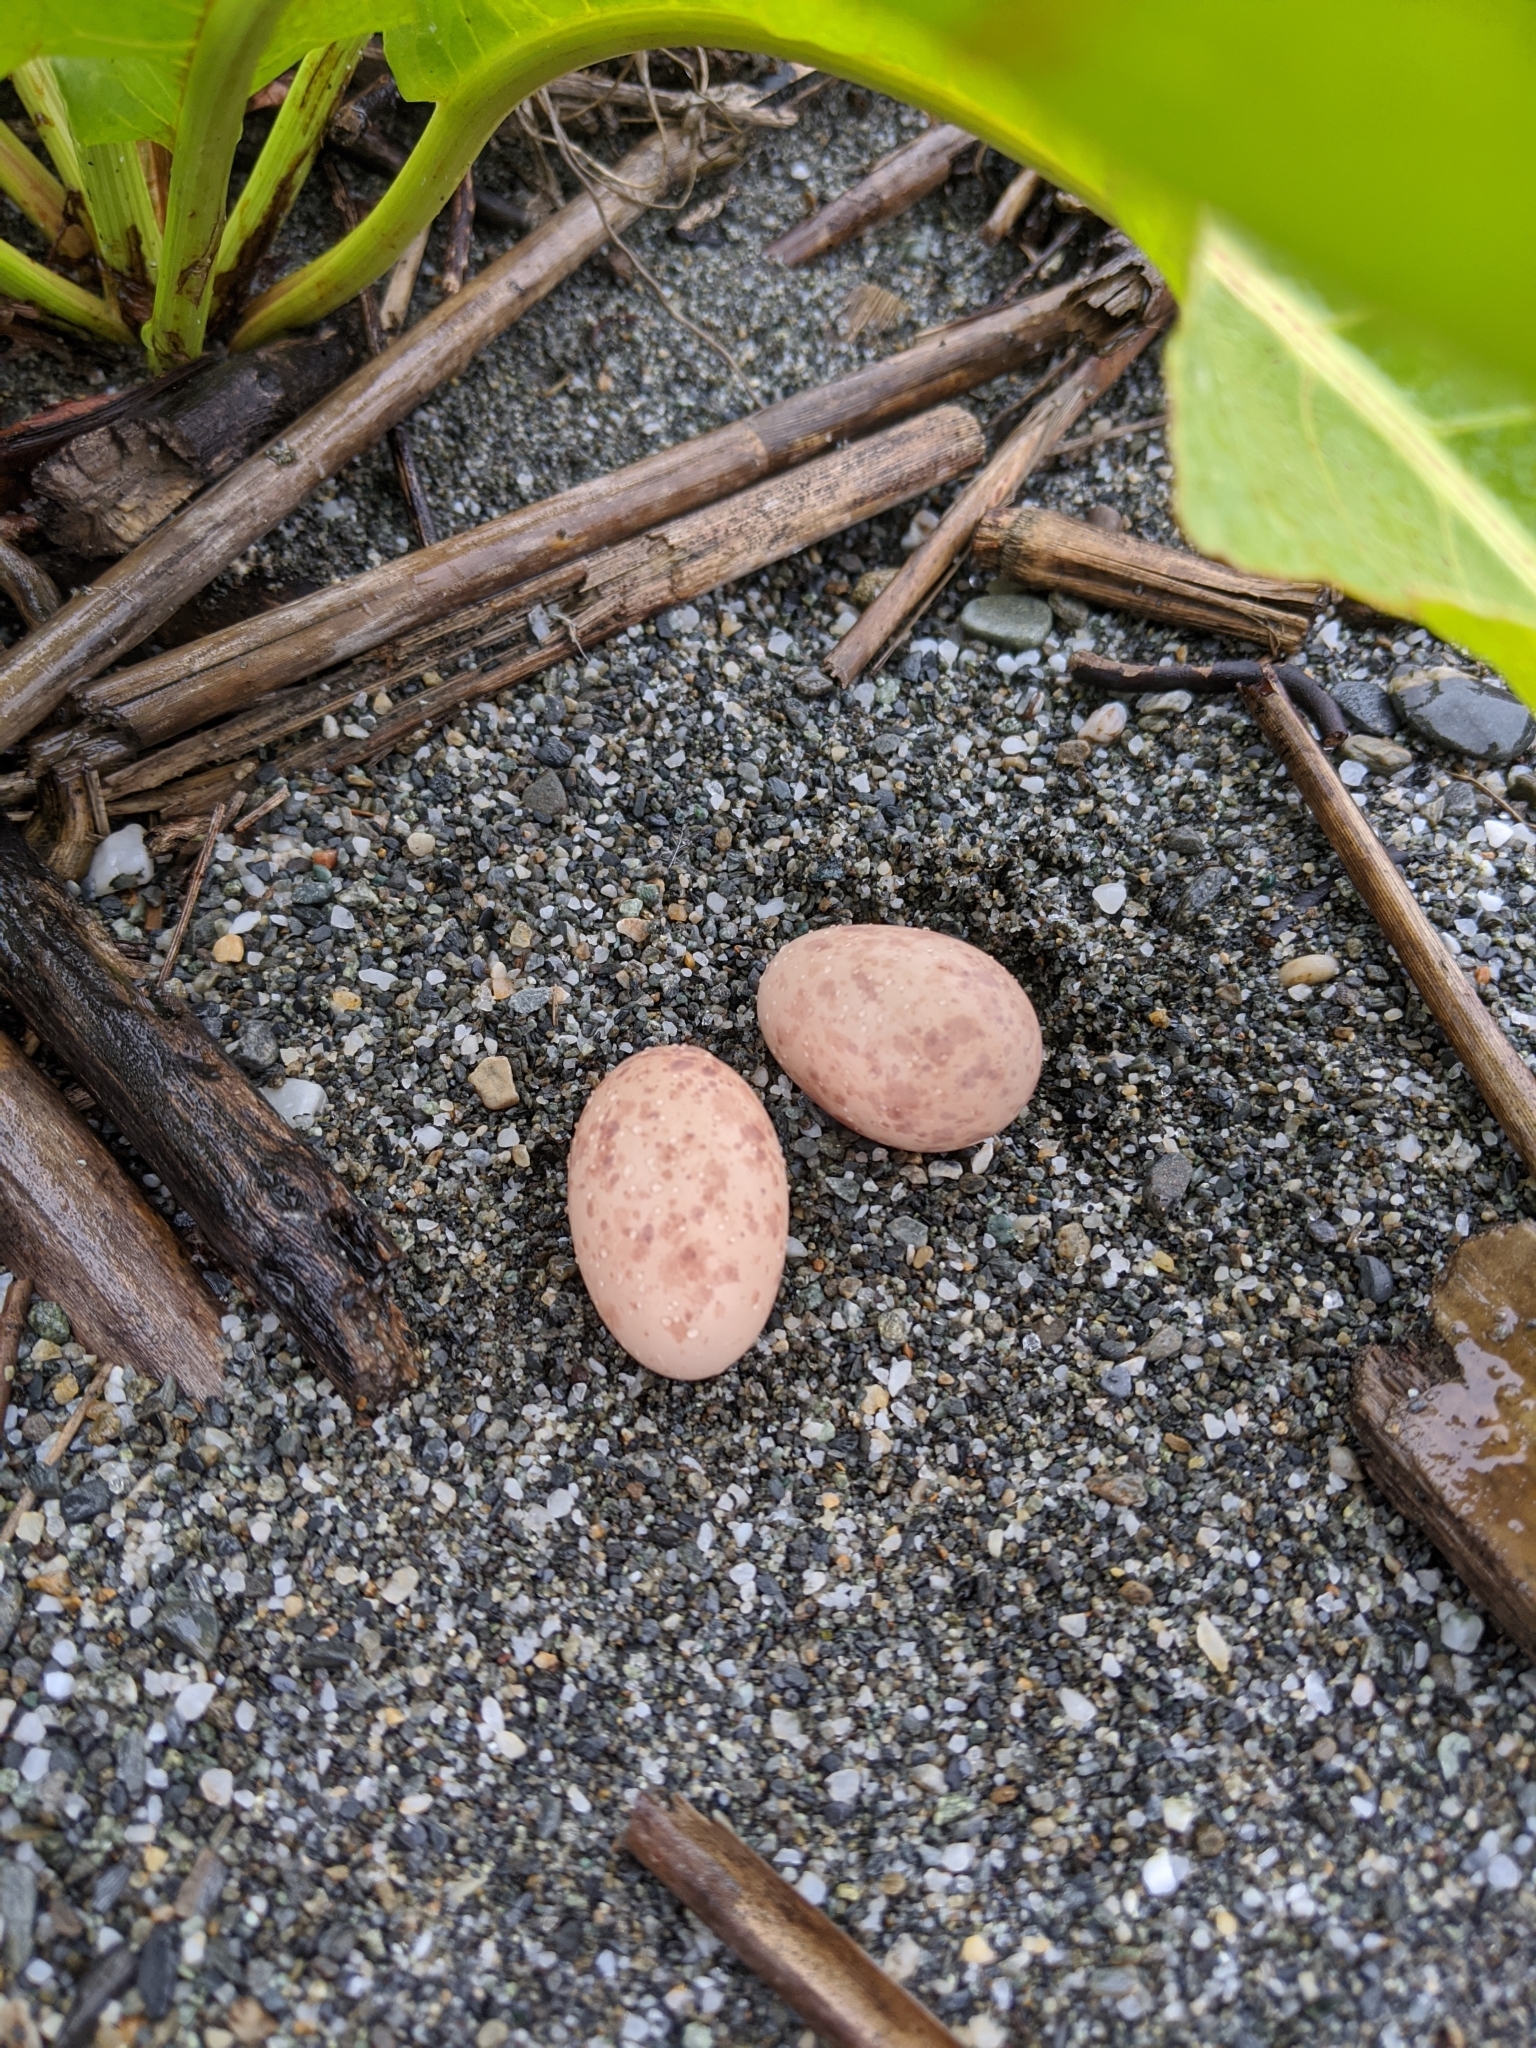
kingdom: Animalia
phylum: Chordata
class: Aves
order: Caprimulgiformes
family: Caprimulgidae
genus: Caprimulgus
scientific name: Caprimulgus affinis
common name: Savanna nightjar
